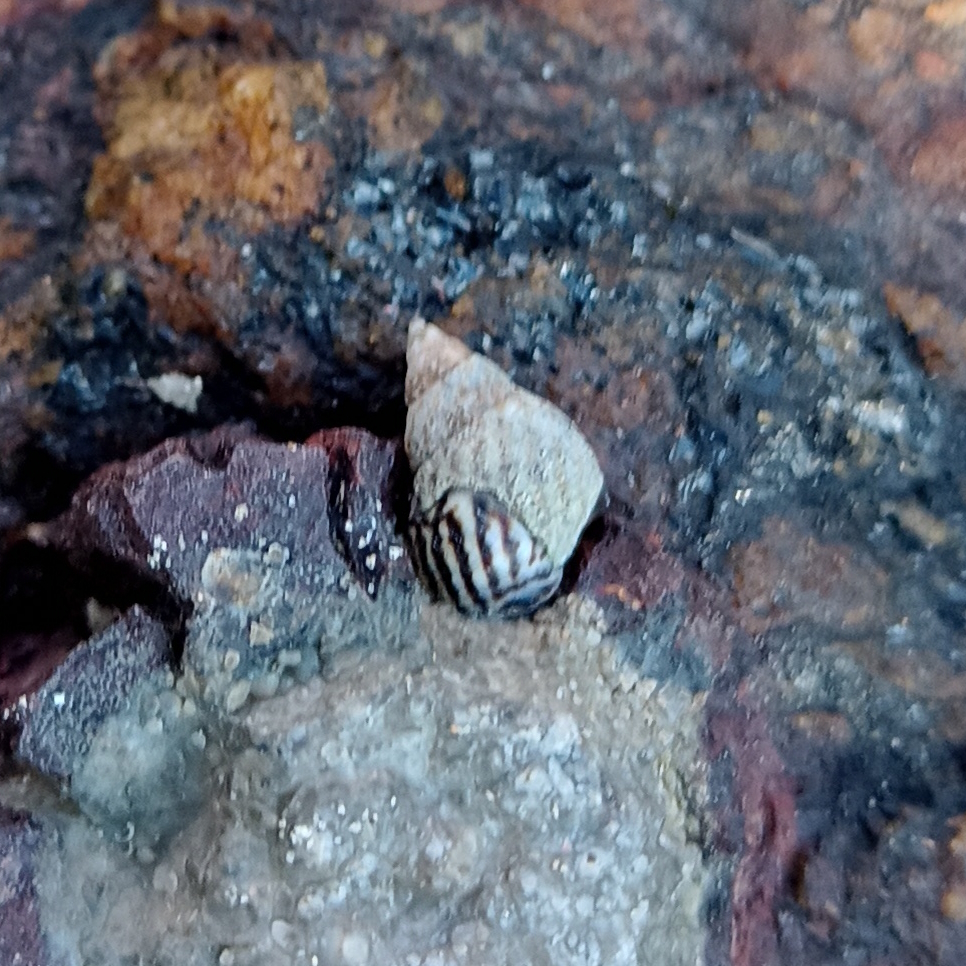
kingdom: Animalia
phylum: Mollusca
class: Gastropoda
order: Littorinimorpha
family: Littorinidae
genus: Echinolittorina
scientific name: Echinolittorina lineolata
